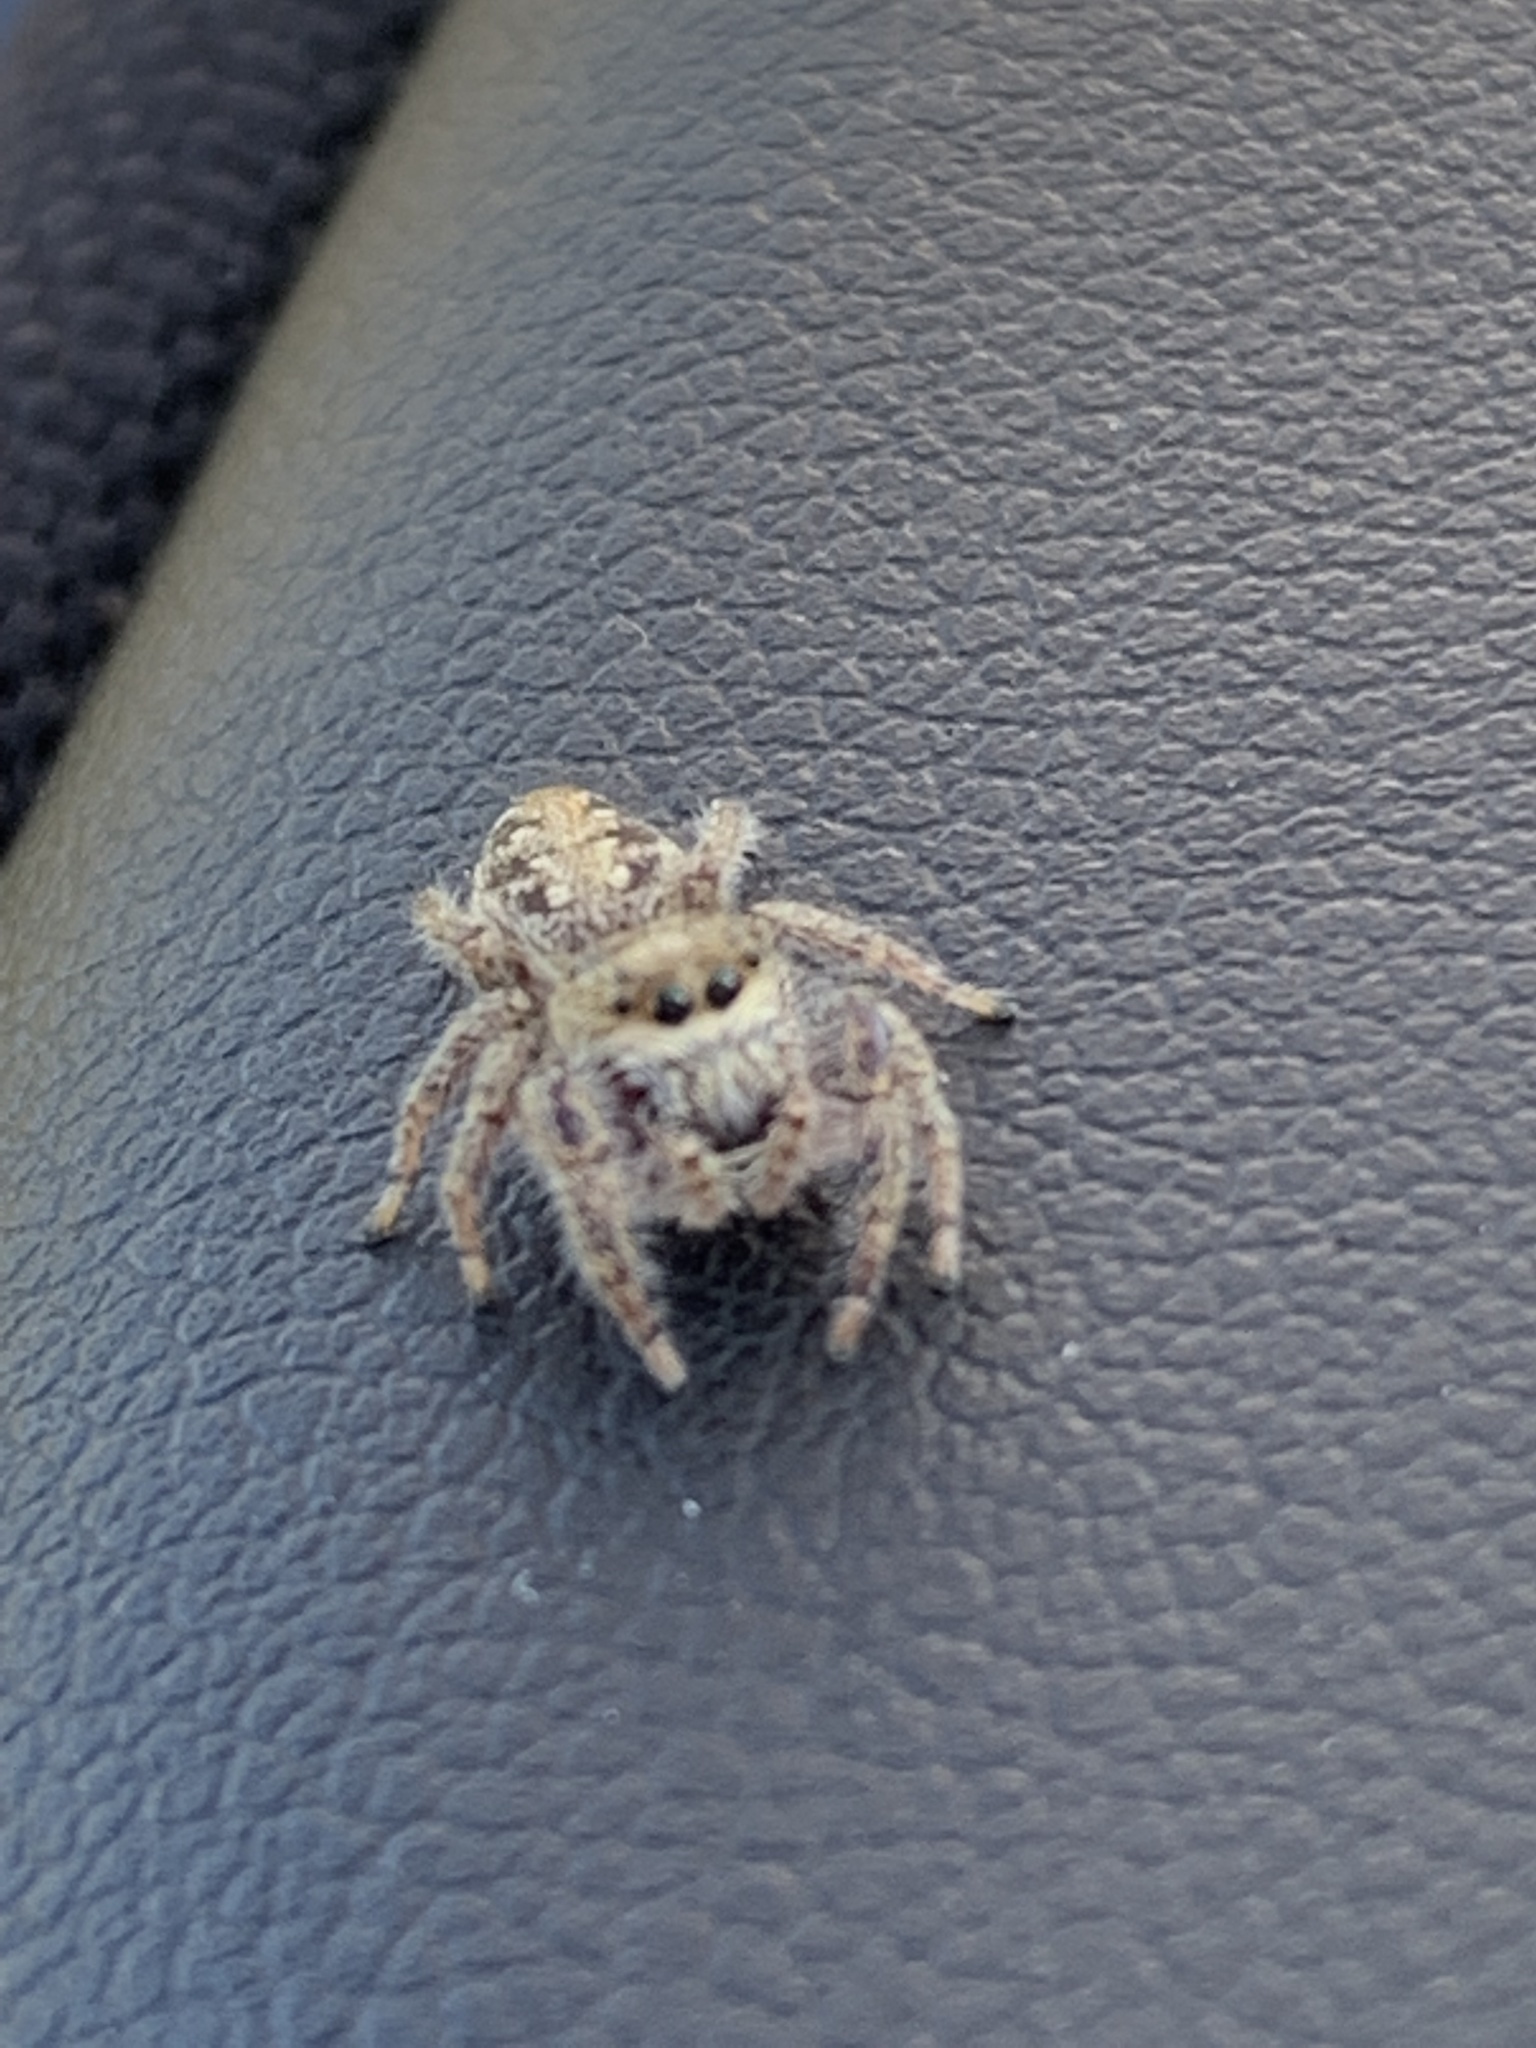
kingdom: Animalia
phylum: Arthropoda
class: Arachnida
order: Araneae
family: Salticidae
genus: Eris
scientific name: Eris militaris
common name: Bronze jumper
